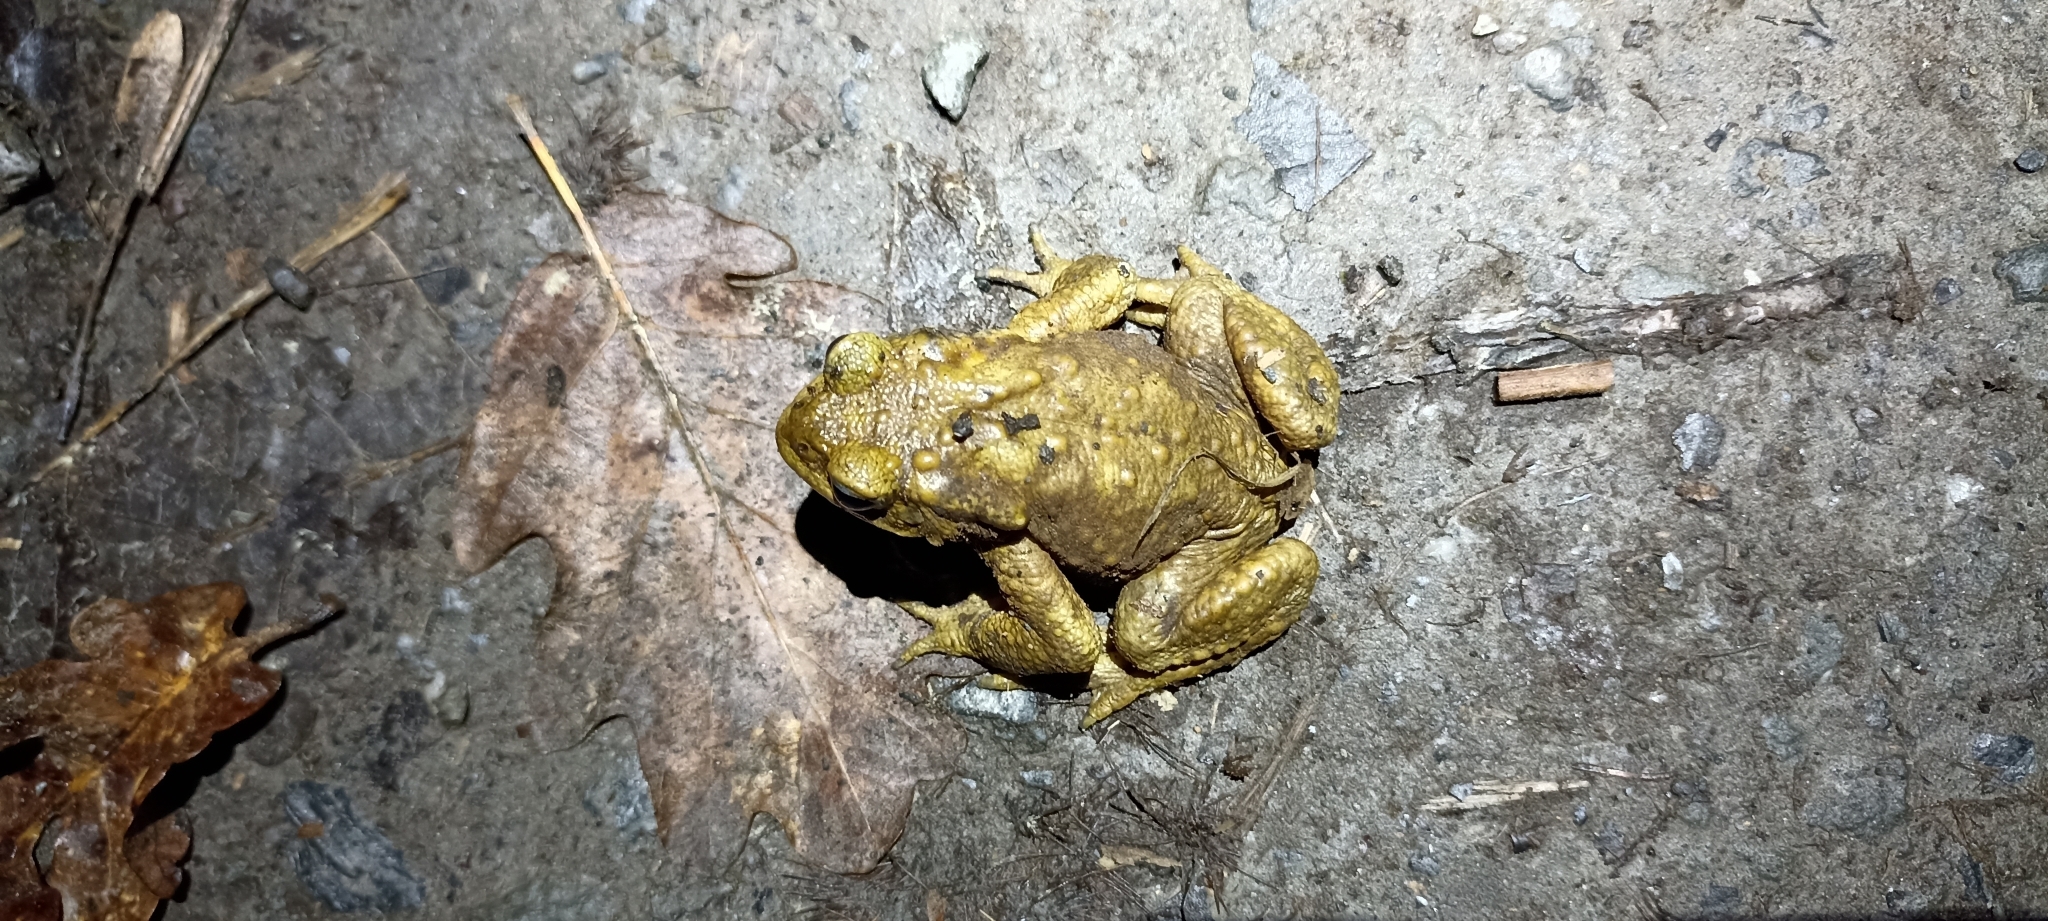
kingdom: Animalia
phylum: Chordata
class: Amphibia
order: Anura
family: Bufonidae
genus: Bufo
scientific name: Bufo spinosus
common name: Western common toad
